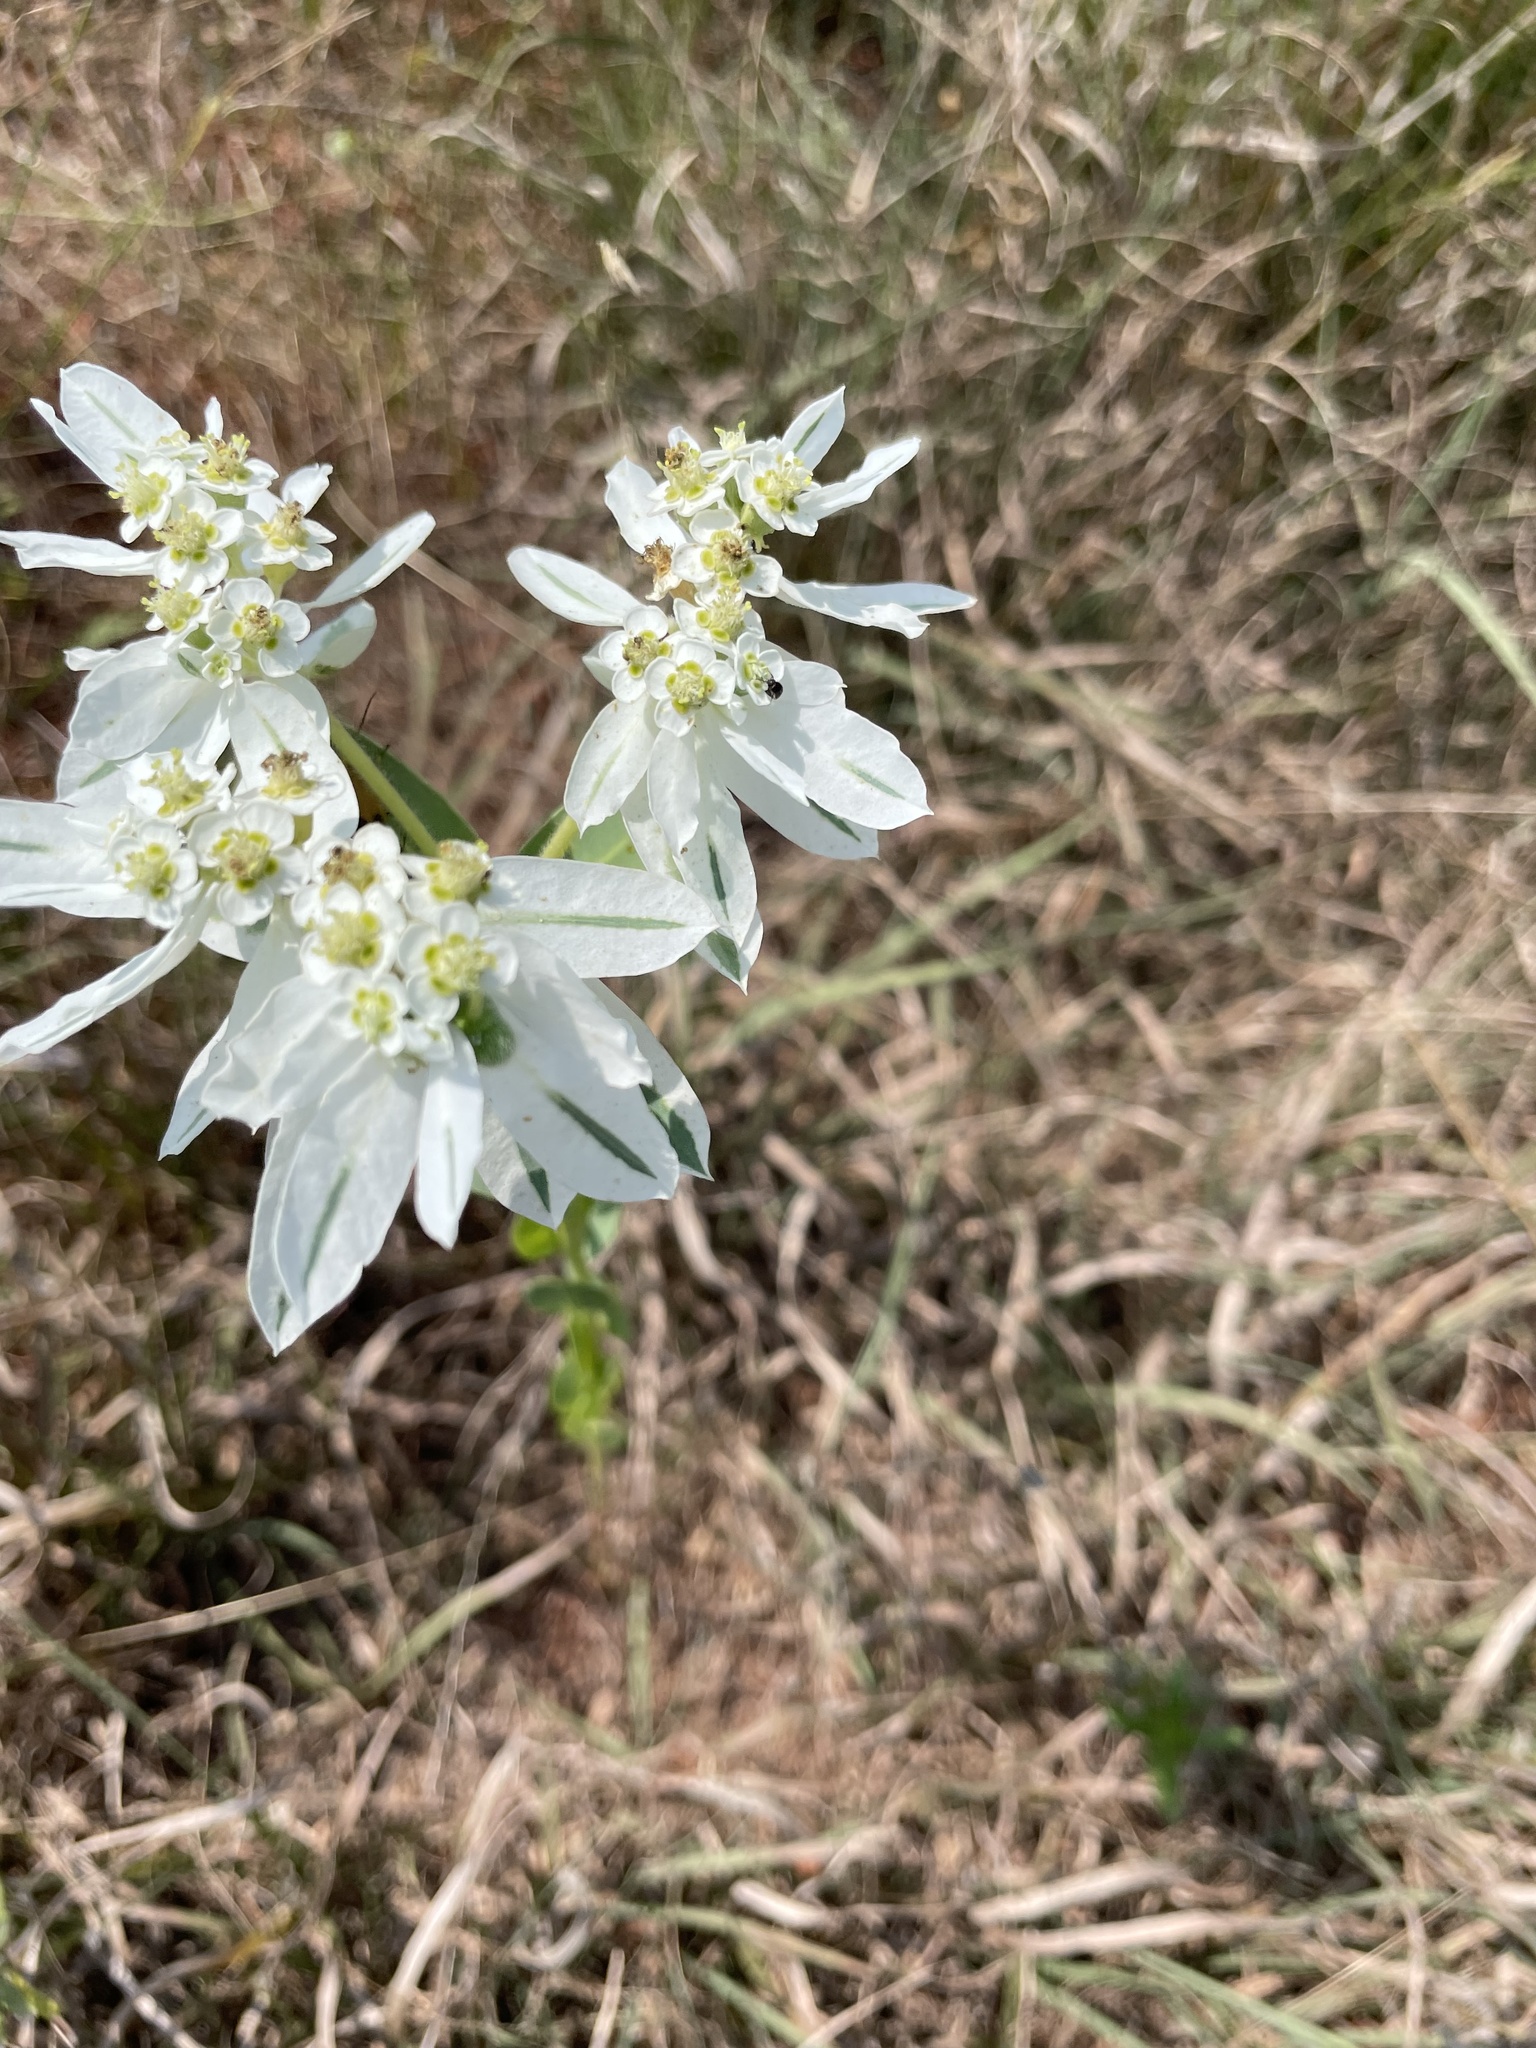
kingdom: Plantae
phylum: Tracheophyta
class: Magnoliopsida
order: Malpighiales
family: Euphorbiaceae
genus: Euphorbia
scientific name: Euphorbia marginata
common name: Ghostweed
